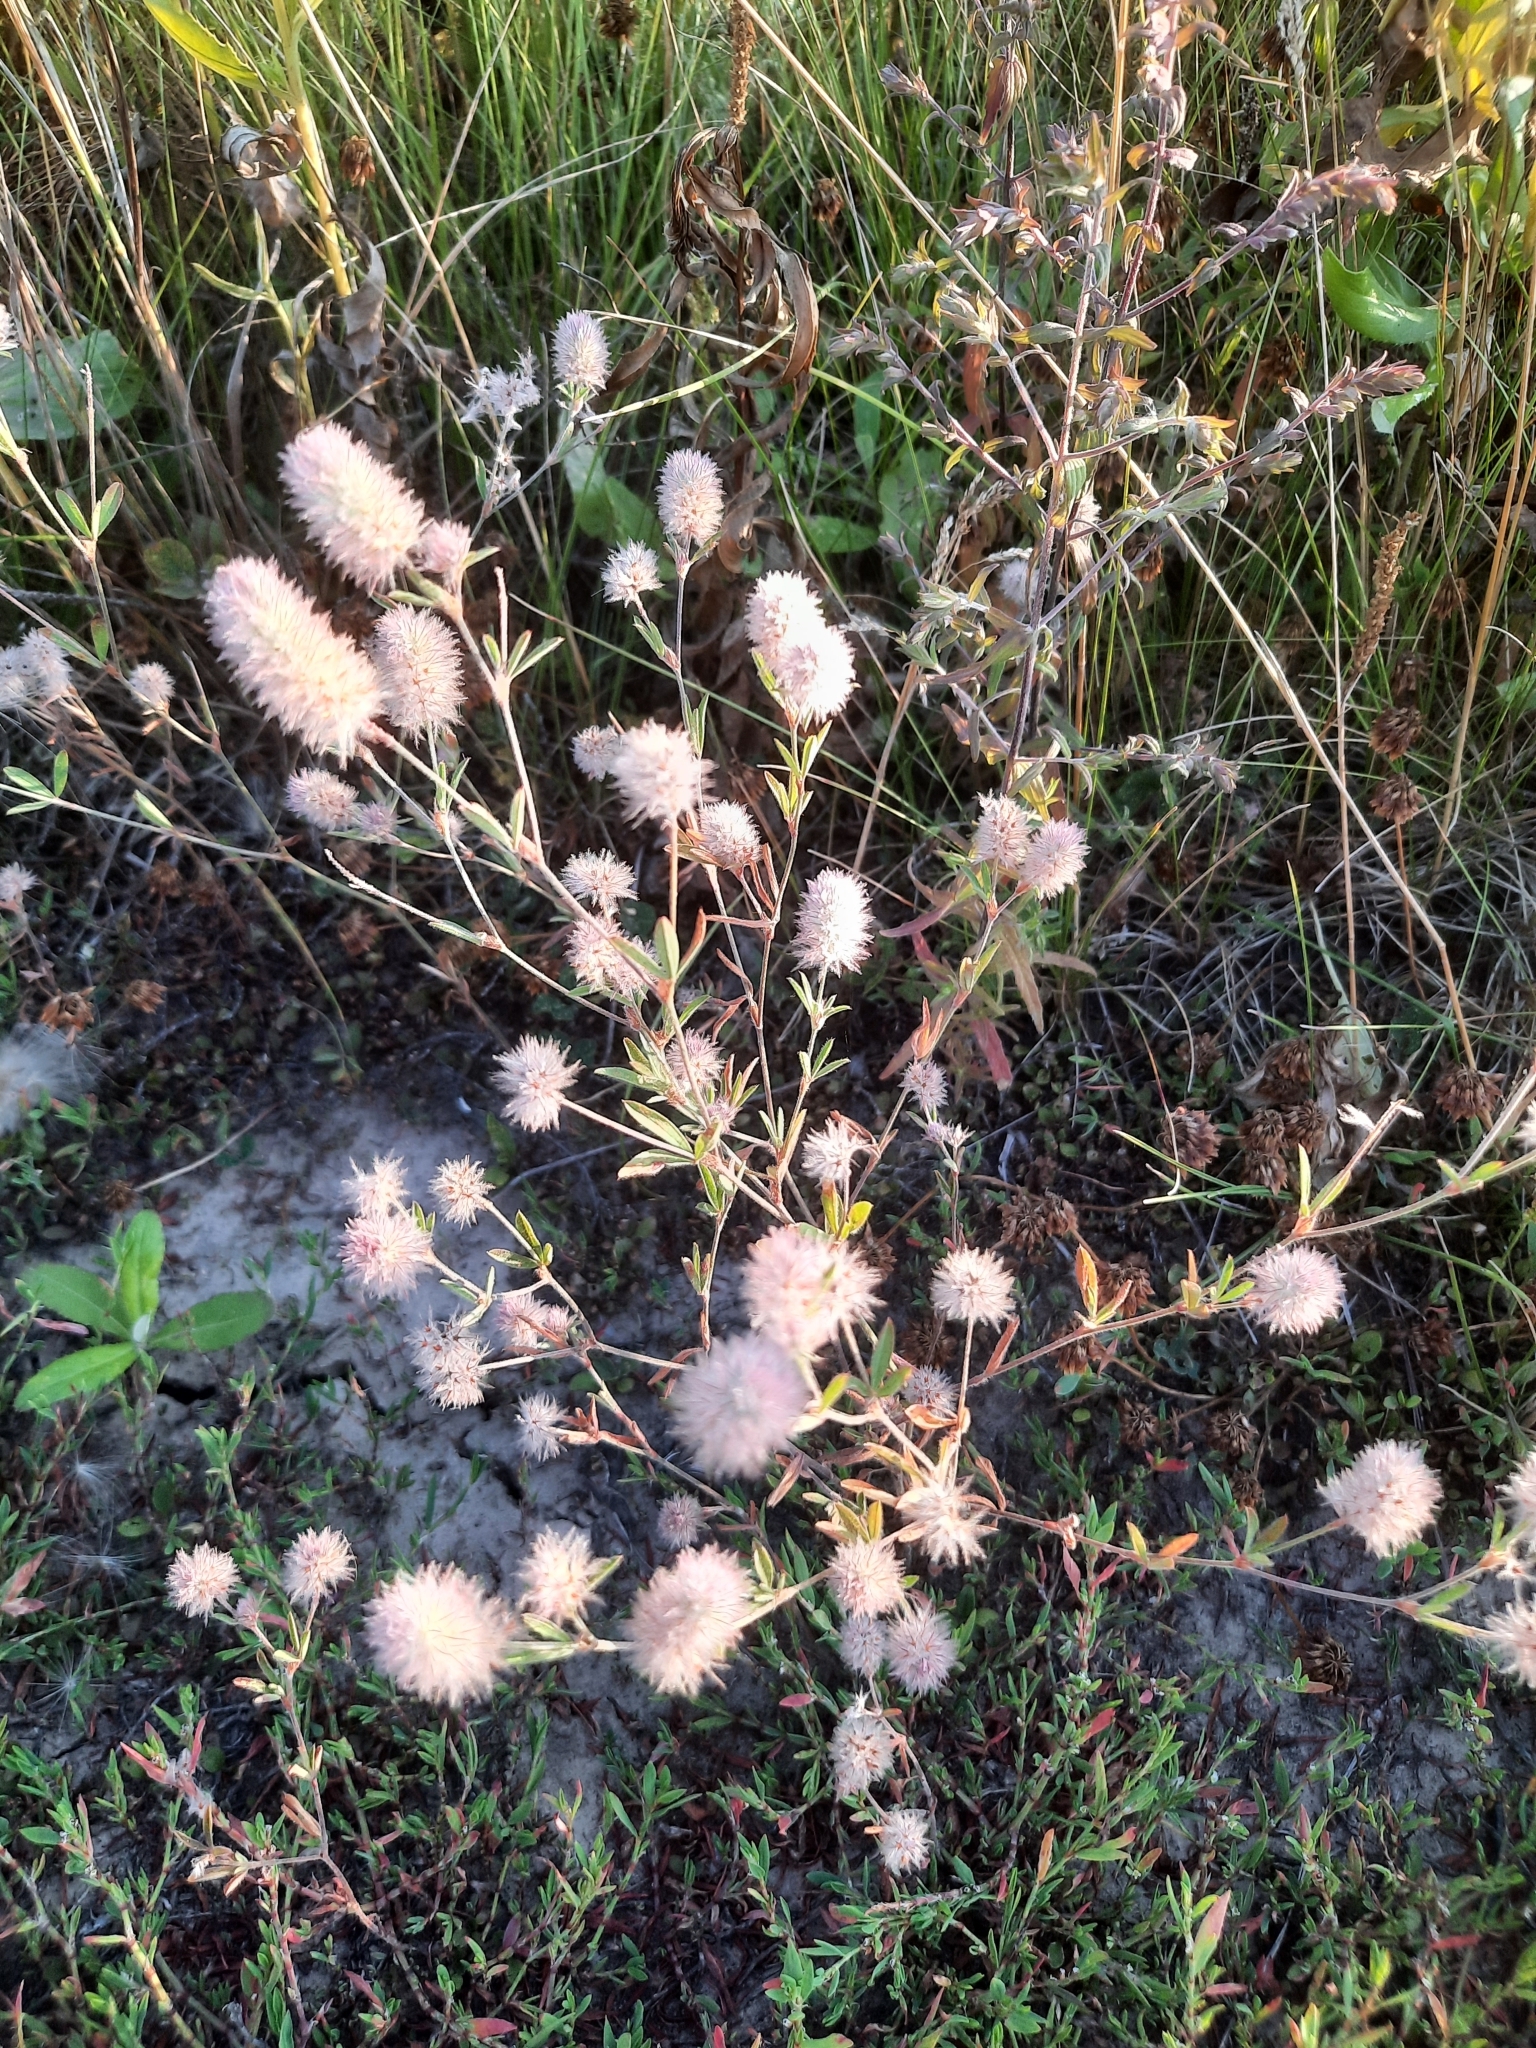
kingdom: Plantae
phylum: Tracheophyta
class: Magnoliopsida
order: Fabales
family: Fabaceae
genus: Trifolium
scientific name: Trifolium arvense
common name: Hare's-foot clover
